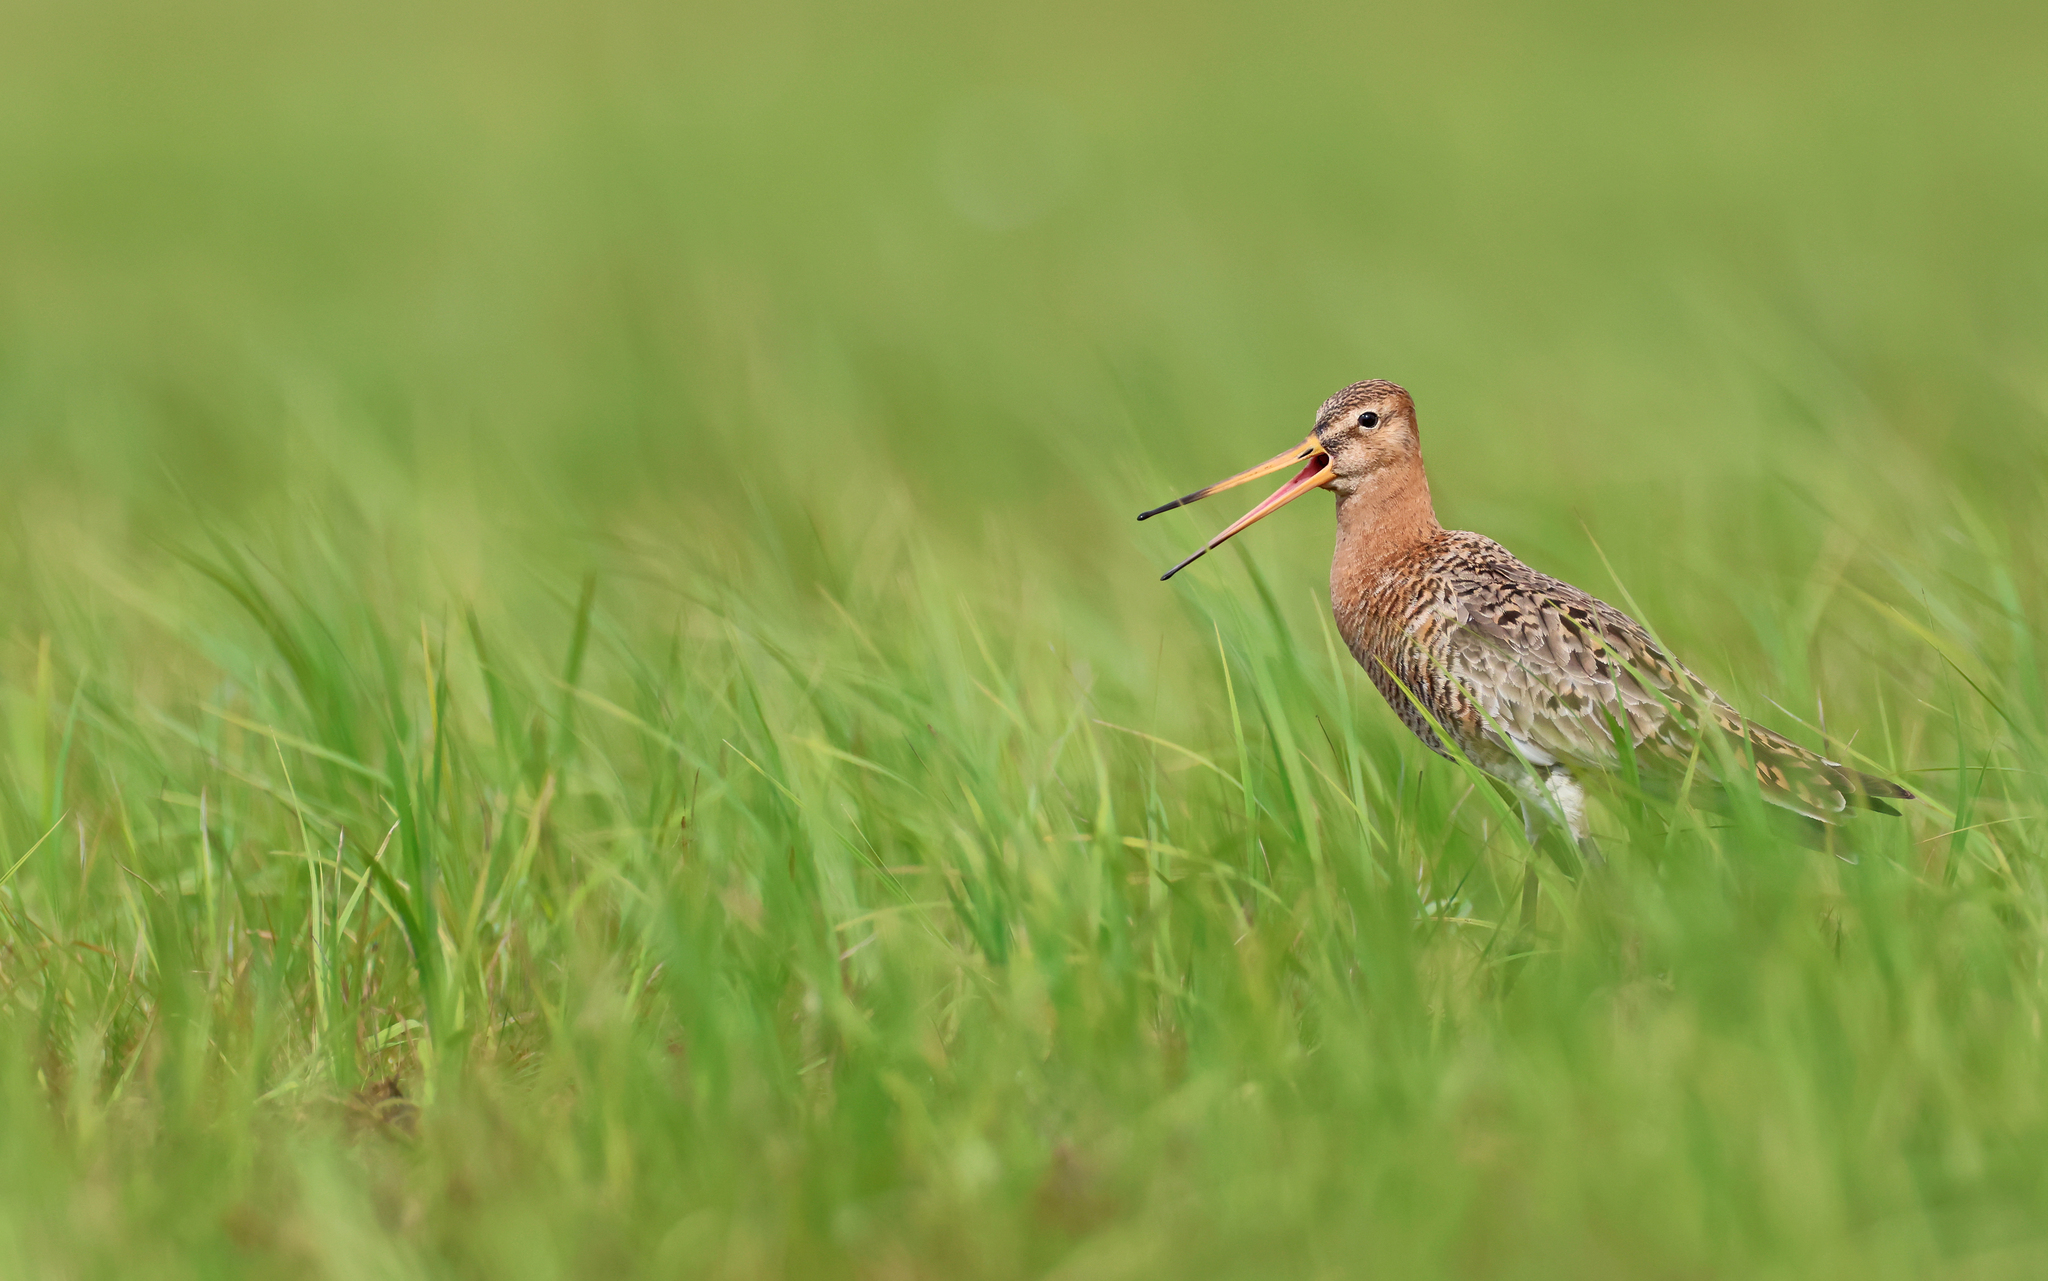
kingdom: Animalia
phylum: Chordata
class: Aves
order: Charadriiformes
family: Scolopacidae
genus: Limosa
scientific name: Limosa limosa
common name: Black-tailed godwit
